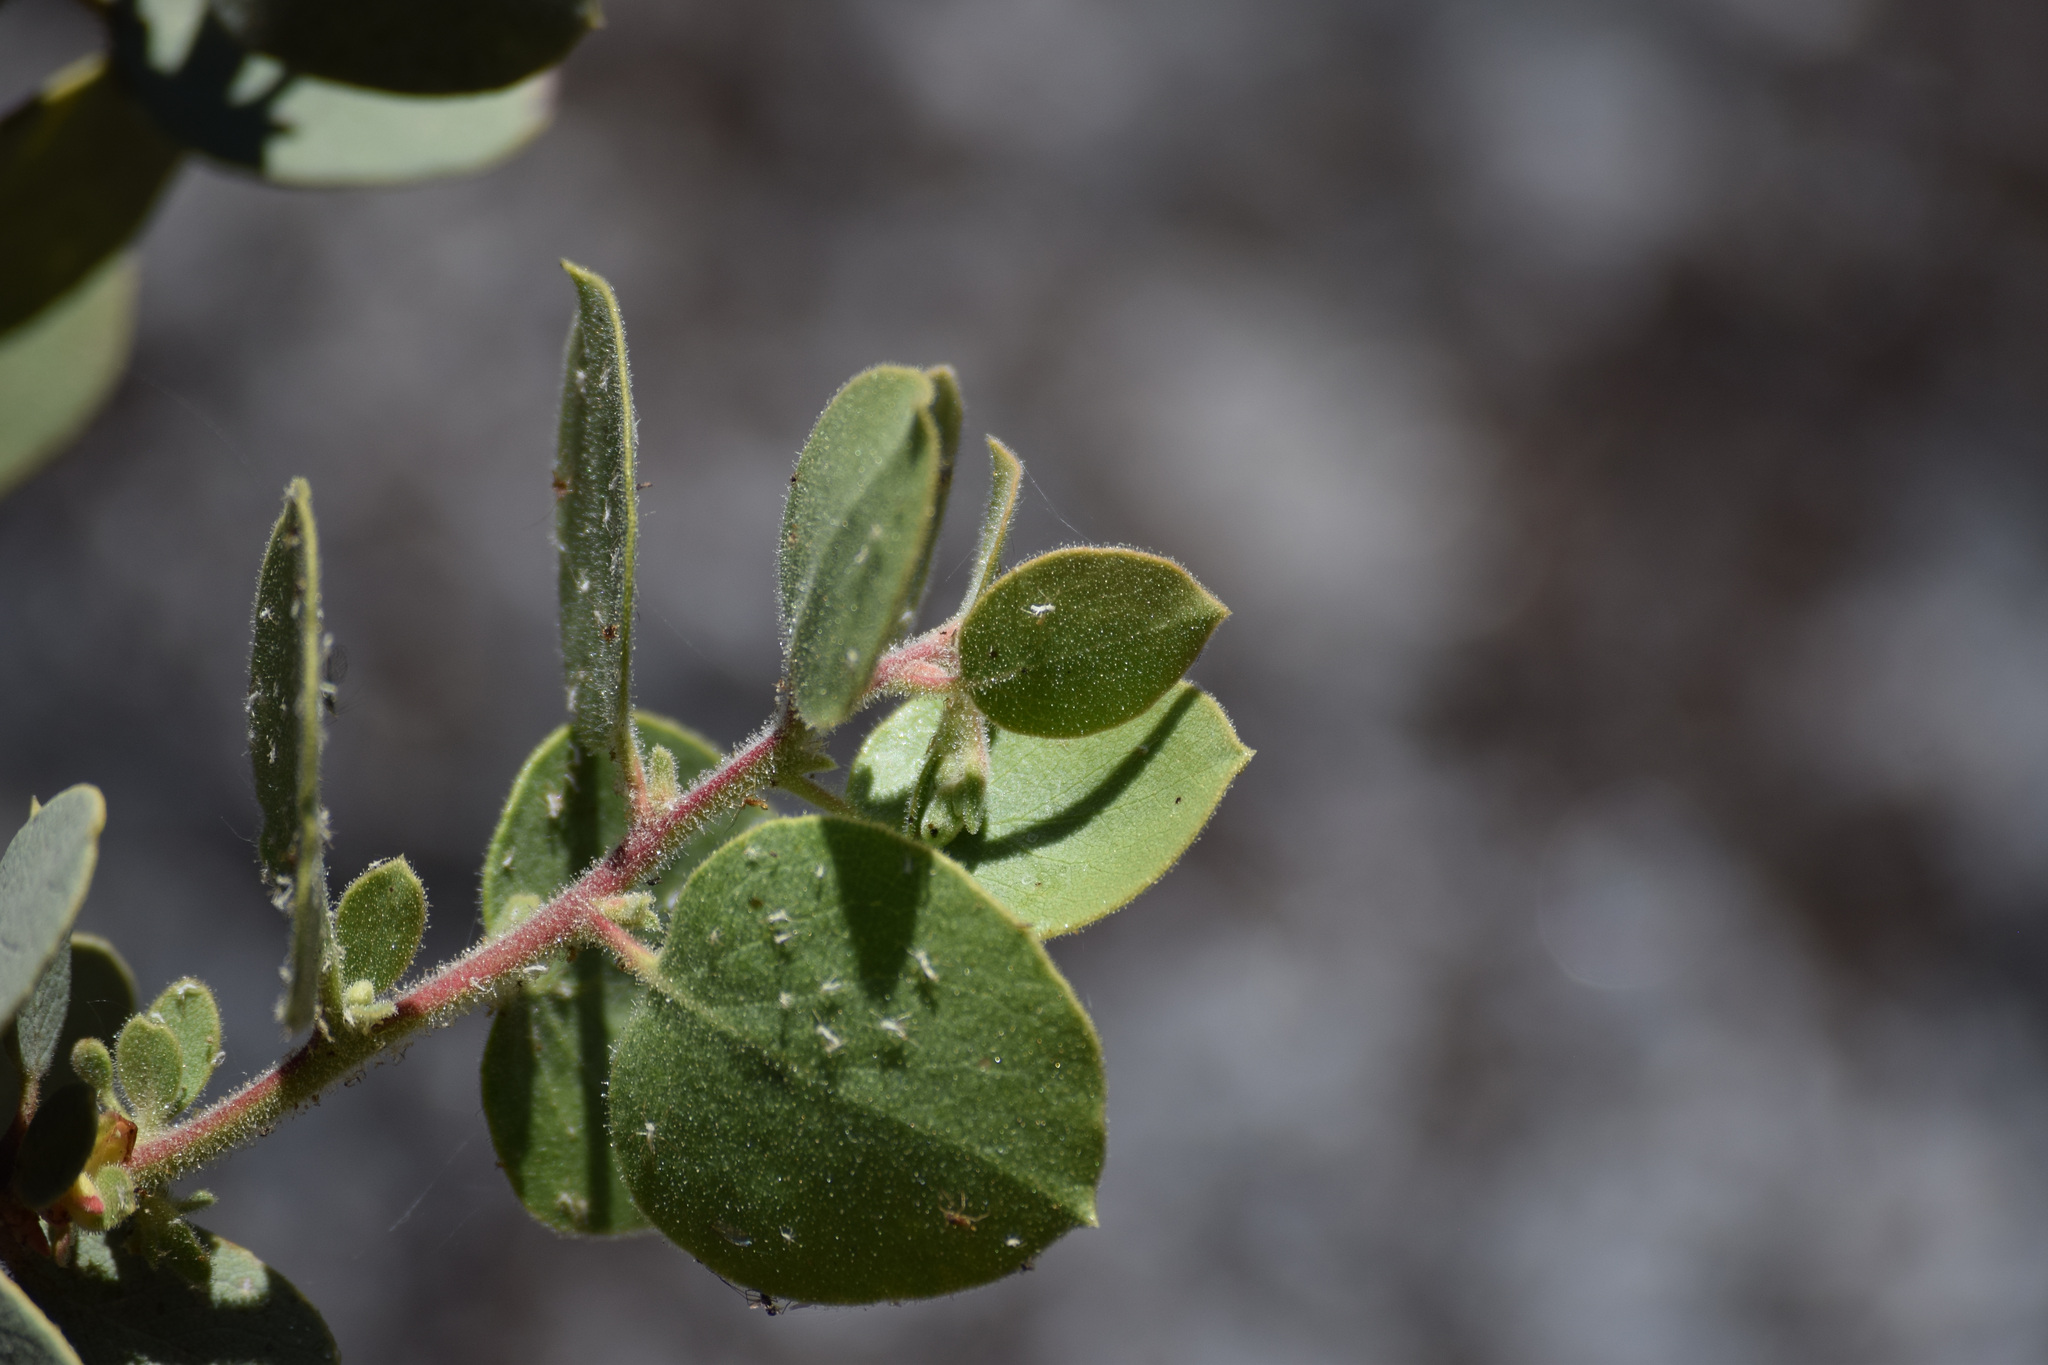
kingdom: Plantae
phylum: Tracheophyta
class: Magnoliopsida
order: Ericales
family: Ericaceae
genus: Arctostaphylos
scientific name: Arctostaphylos viscida
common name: White-leaf manzanita
